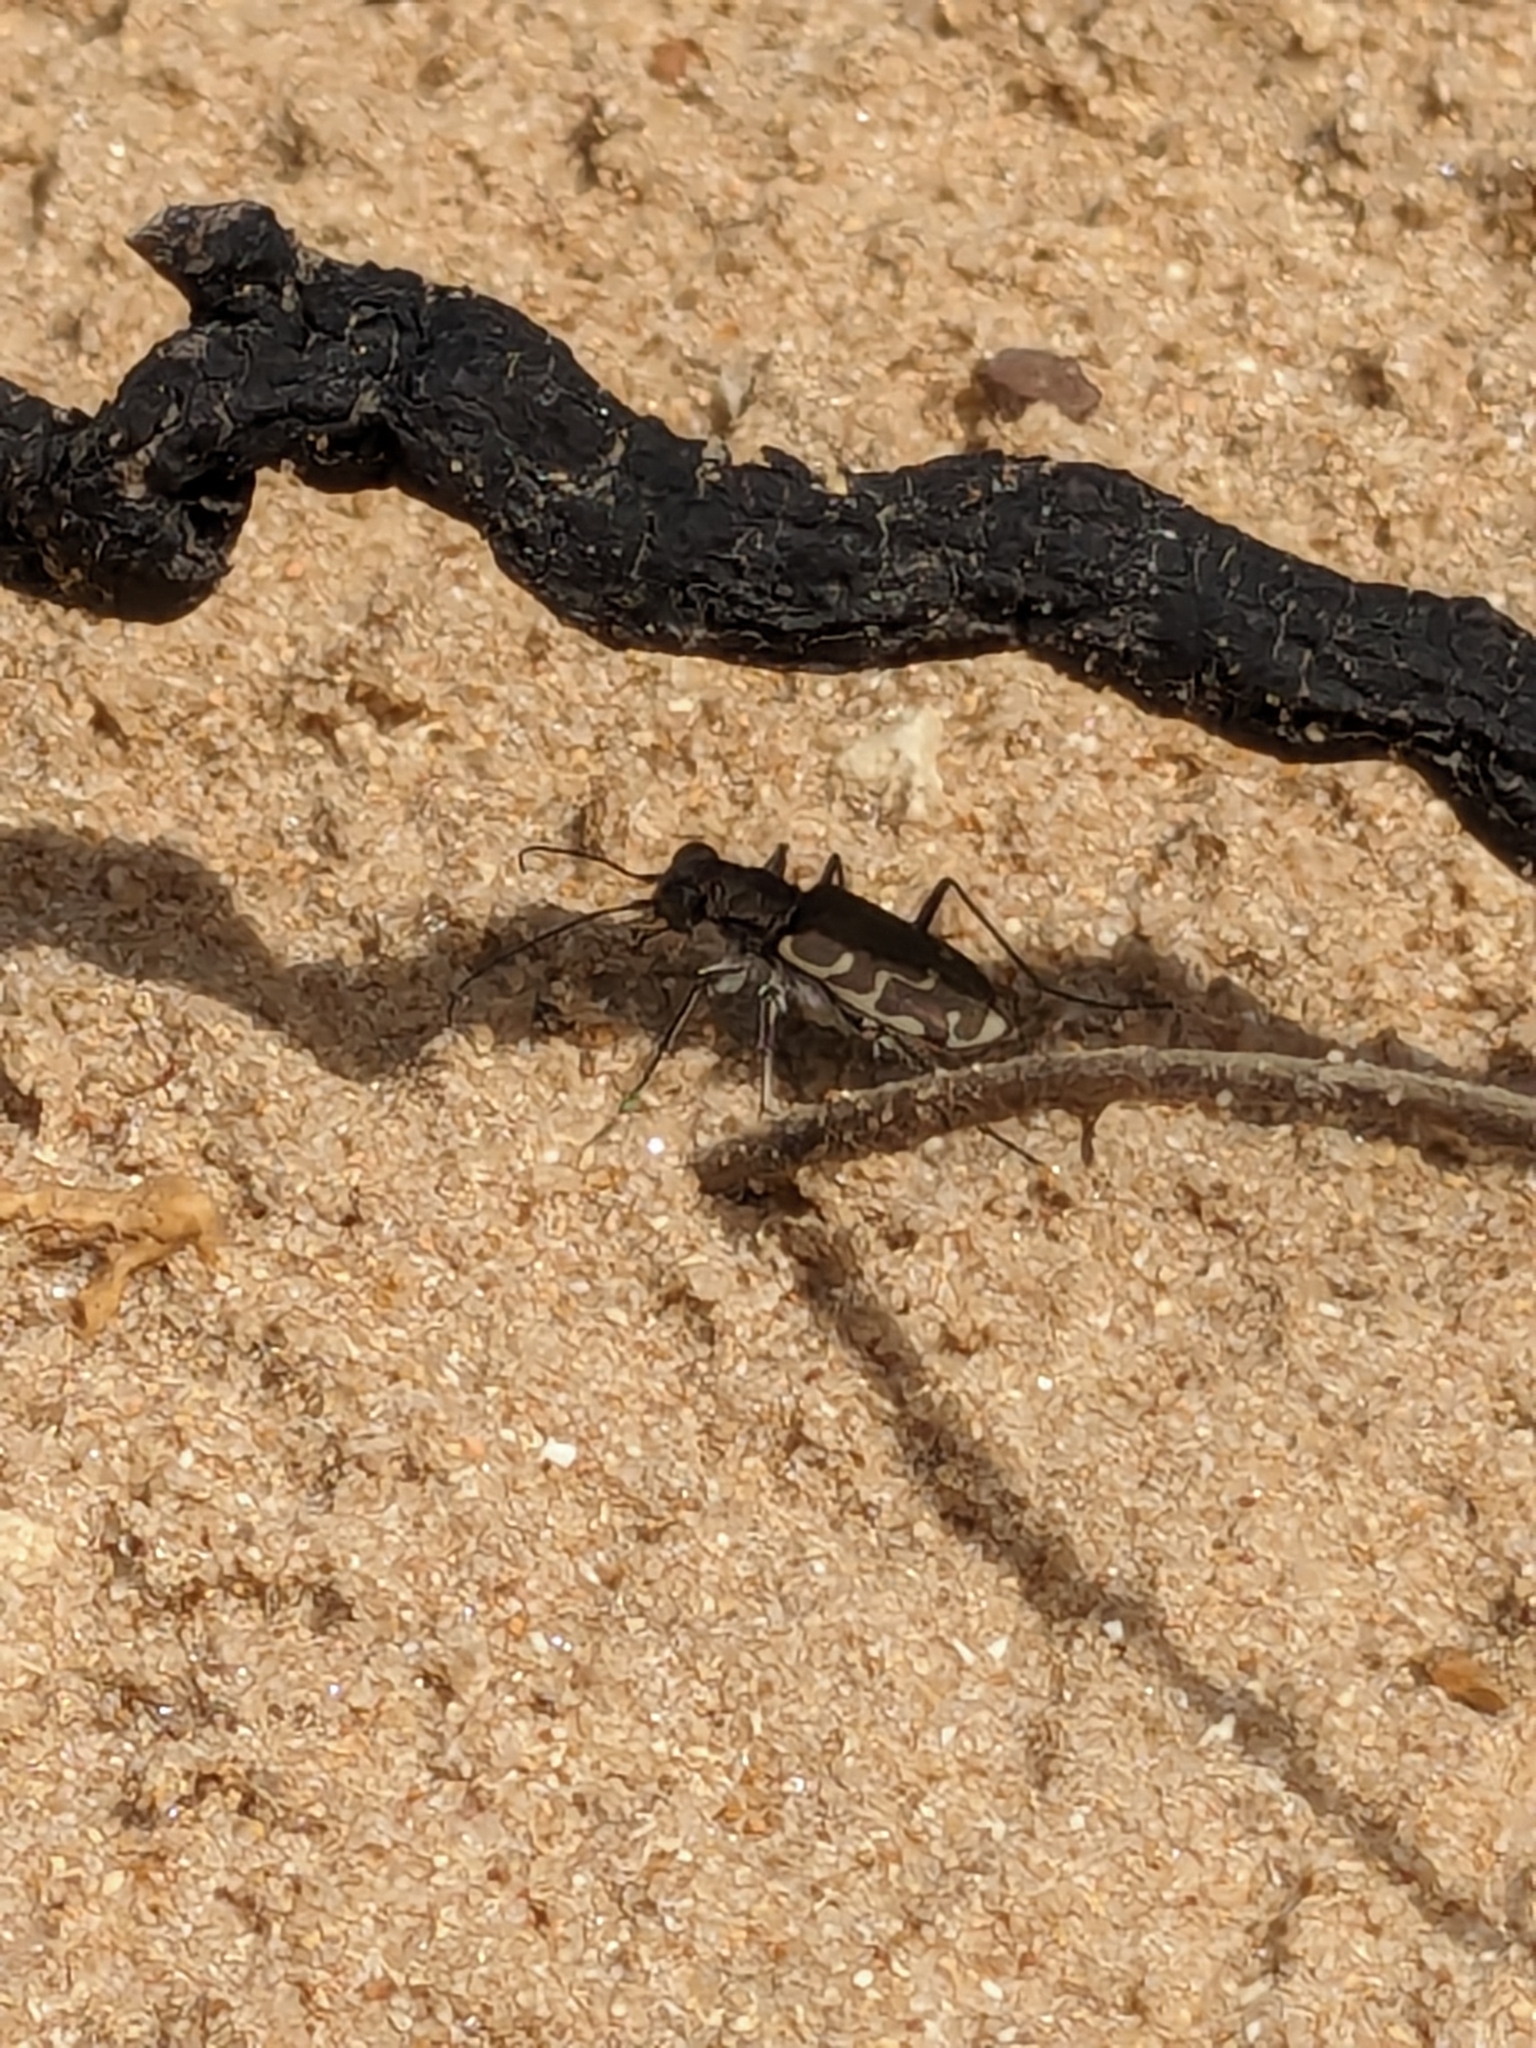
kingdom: Animalia
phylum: Arthropoda
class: Insecta
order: Coleoptera
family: Carabidae
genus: Cicindela
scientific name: Cicindela repanda
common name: Bronzed tiger beetle
